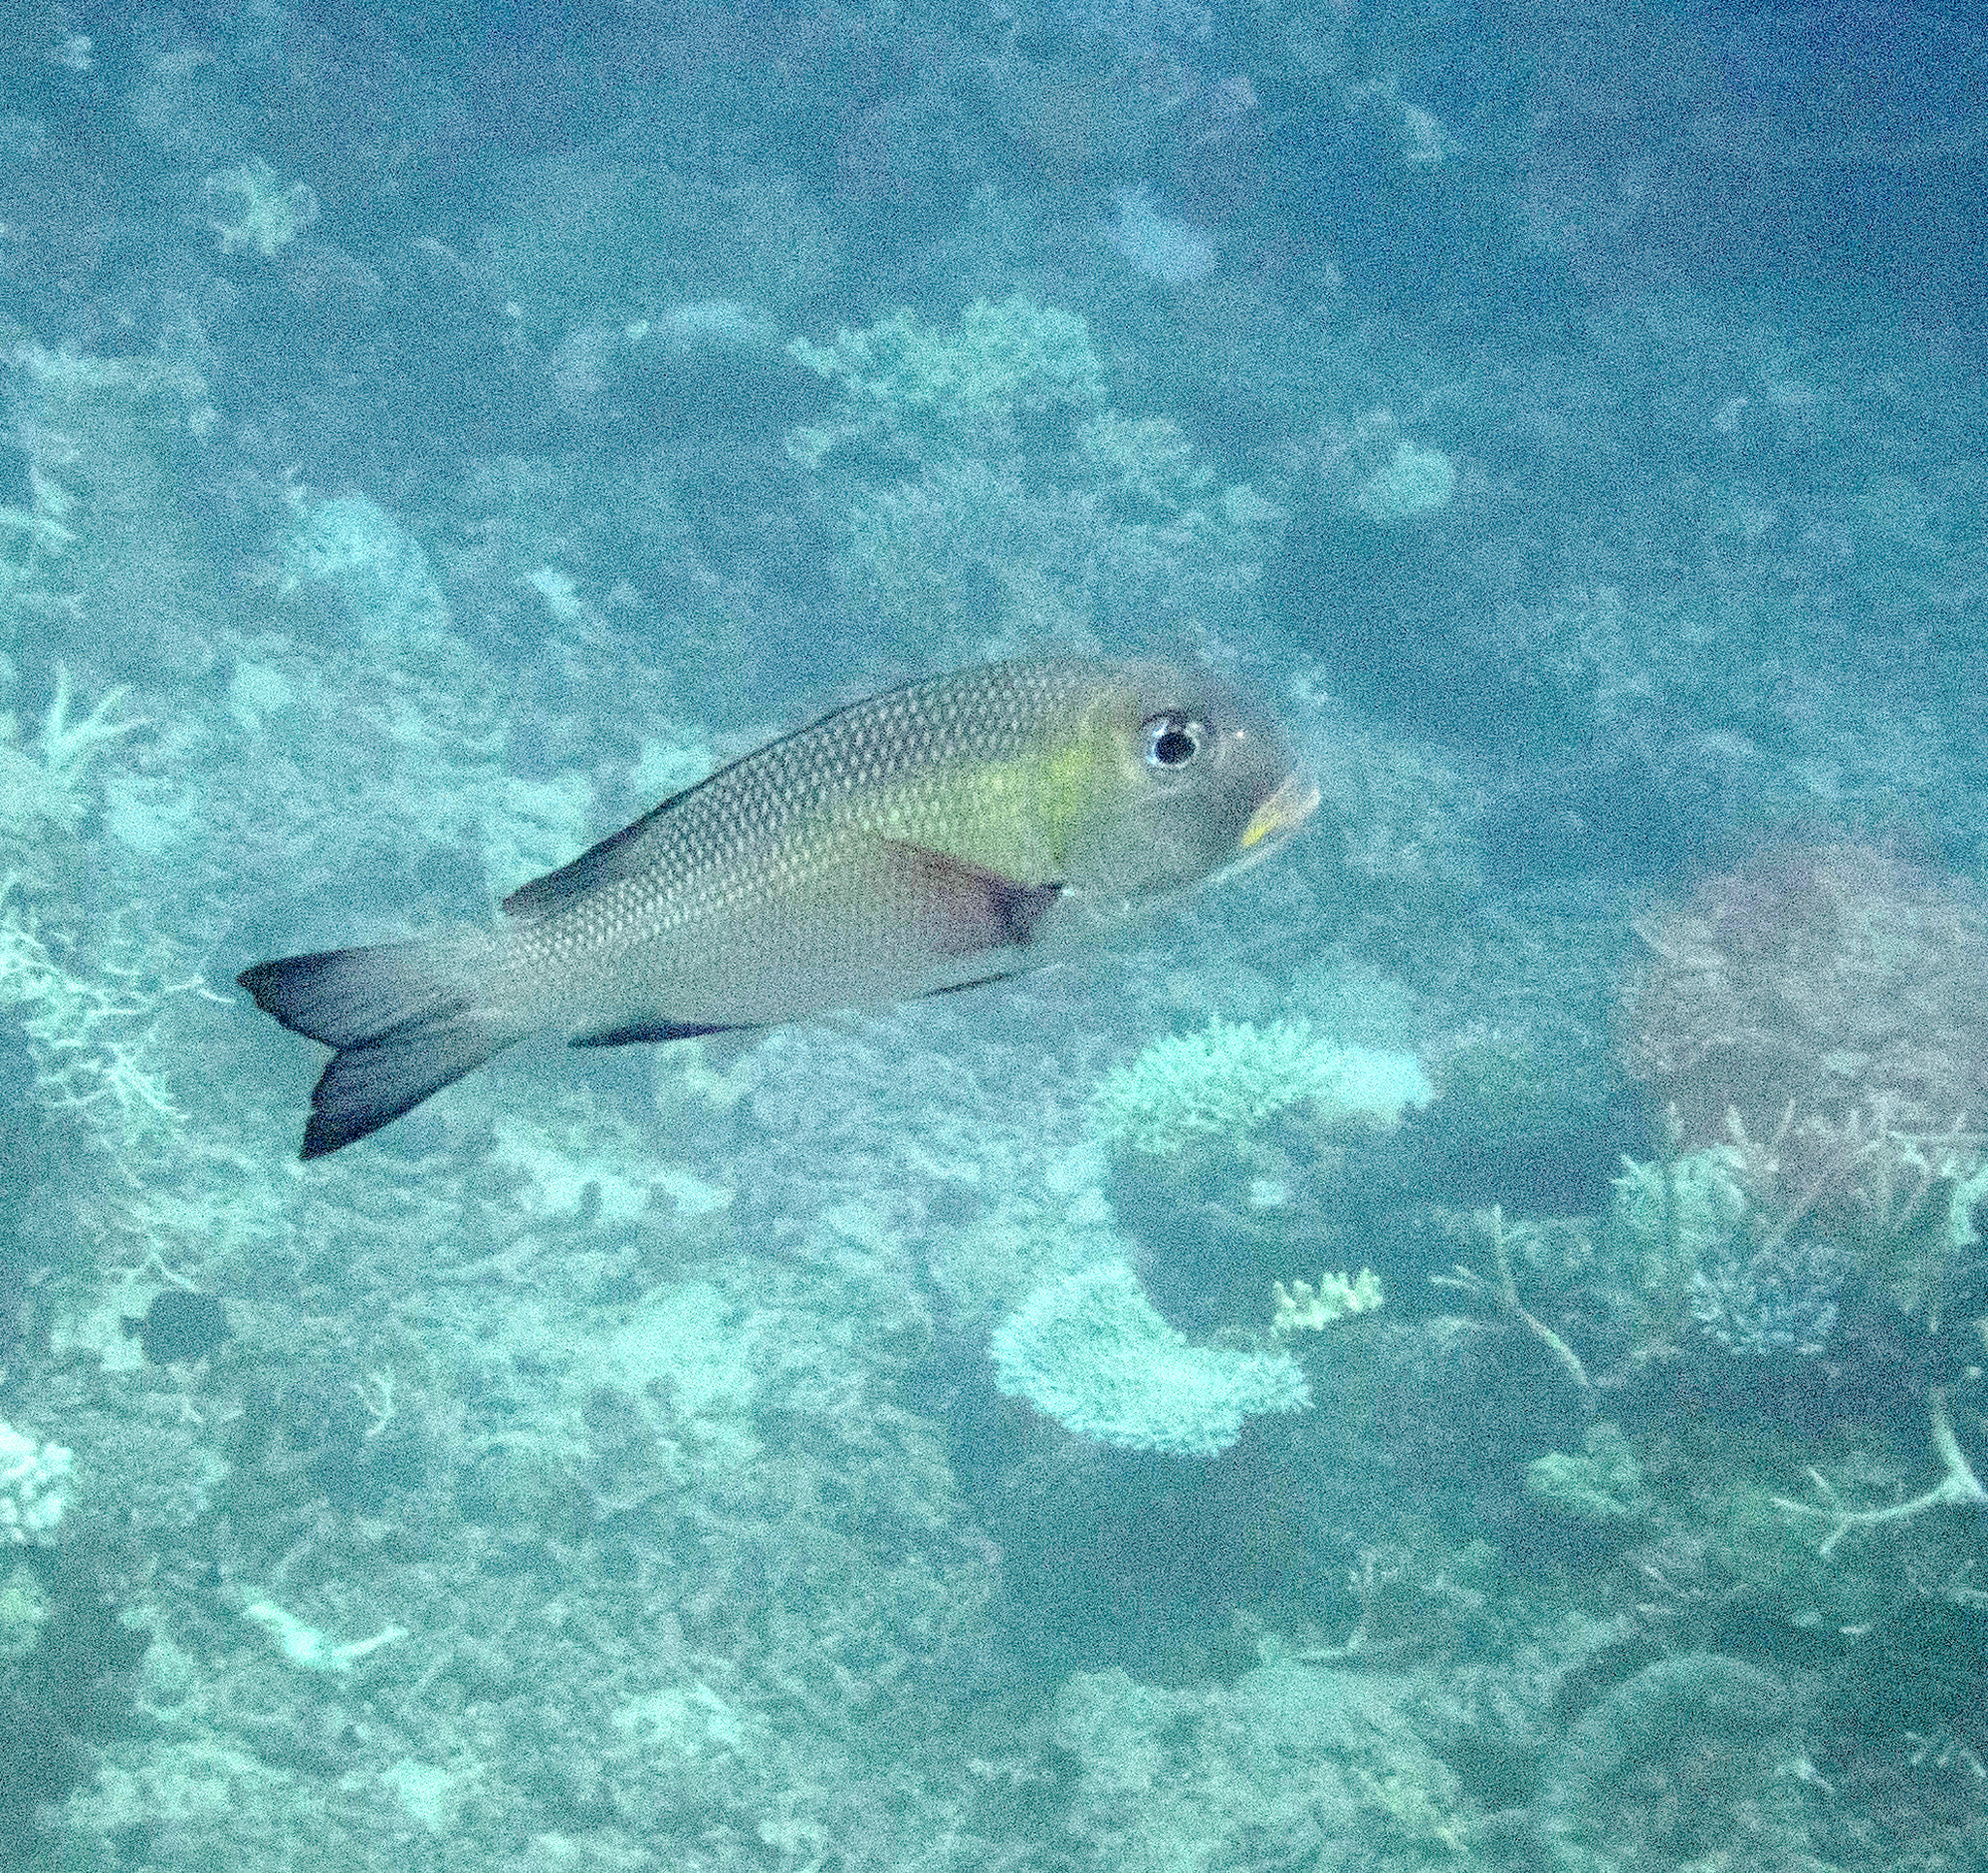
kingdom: Animalia
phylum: Chordata
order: Perciformes
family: Lethrinidae
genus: Monotaxis
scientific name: Monotaxis grandoculis
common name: Bigeye emperor
